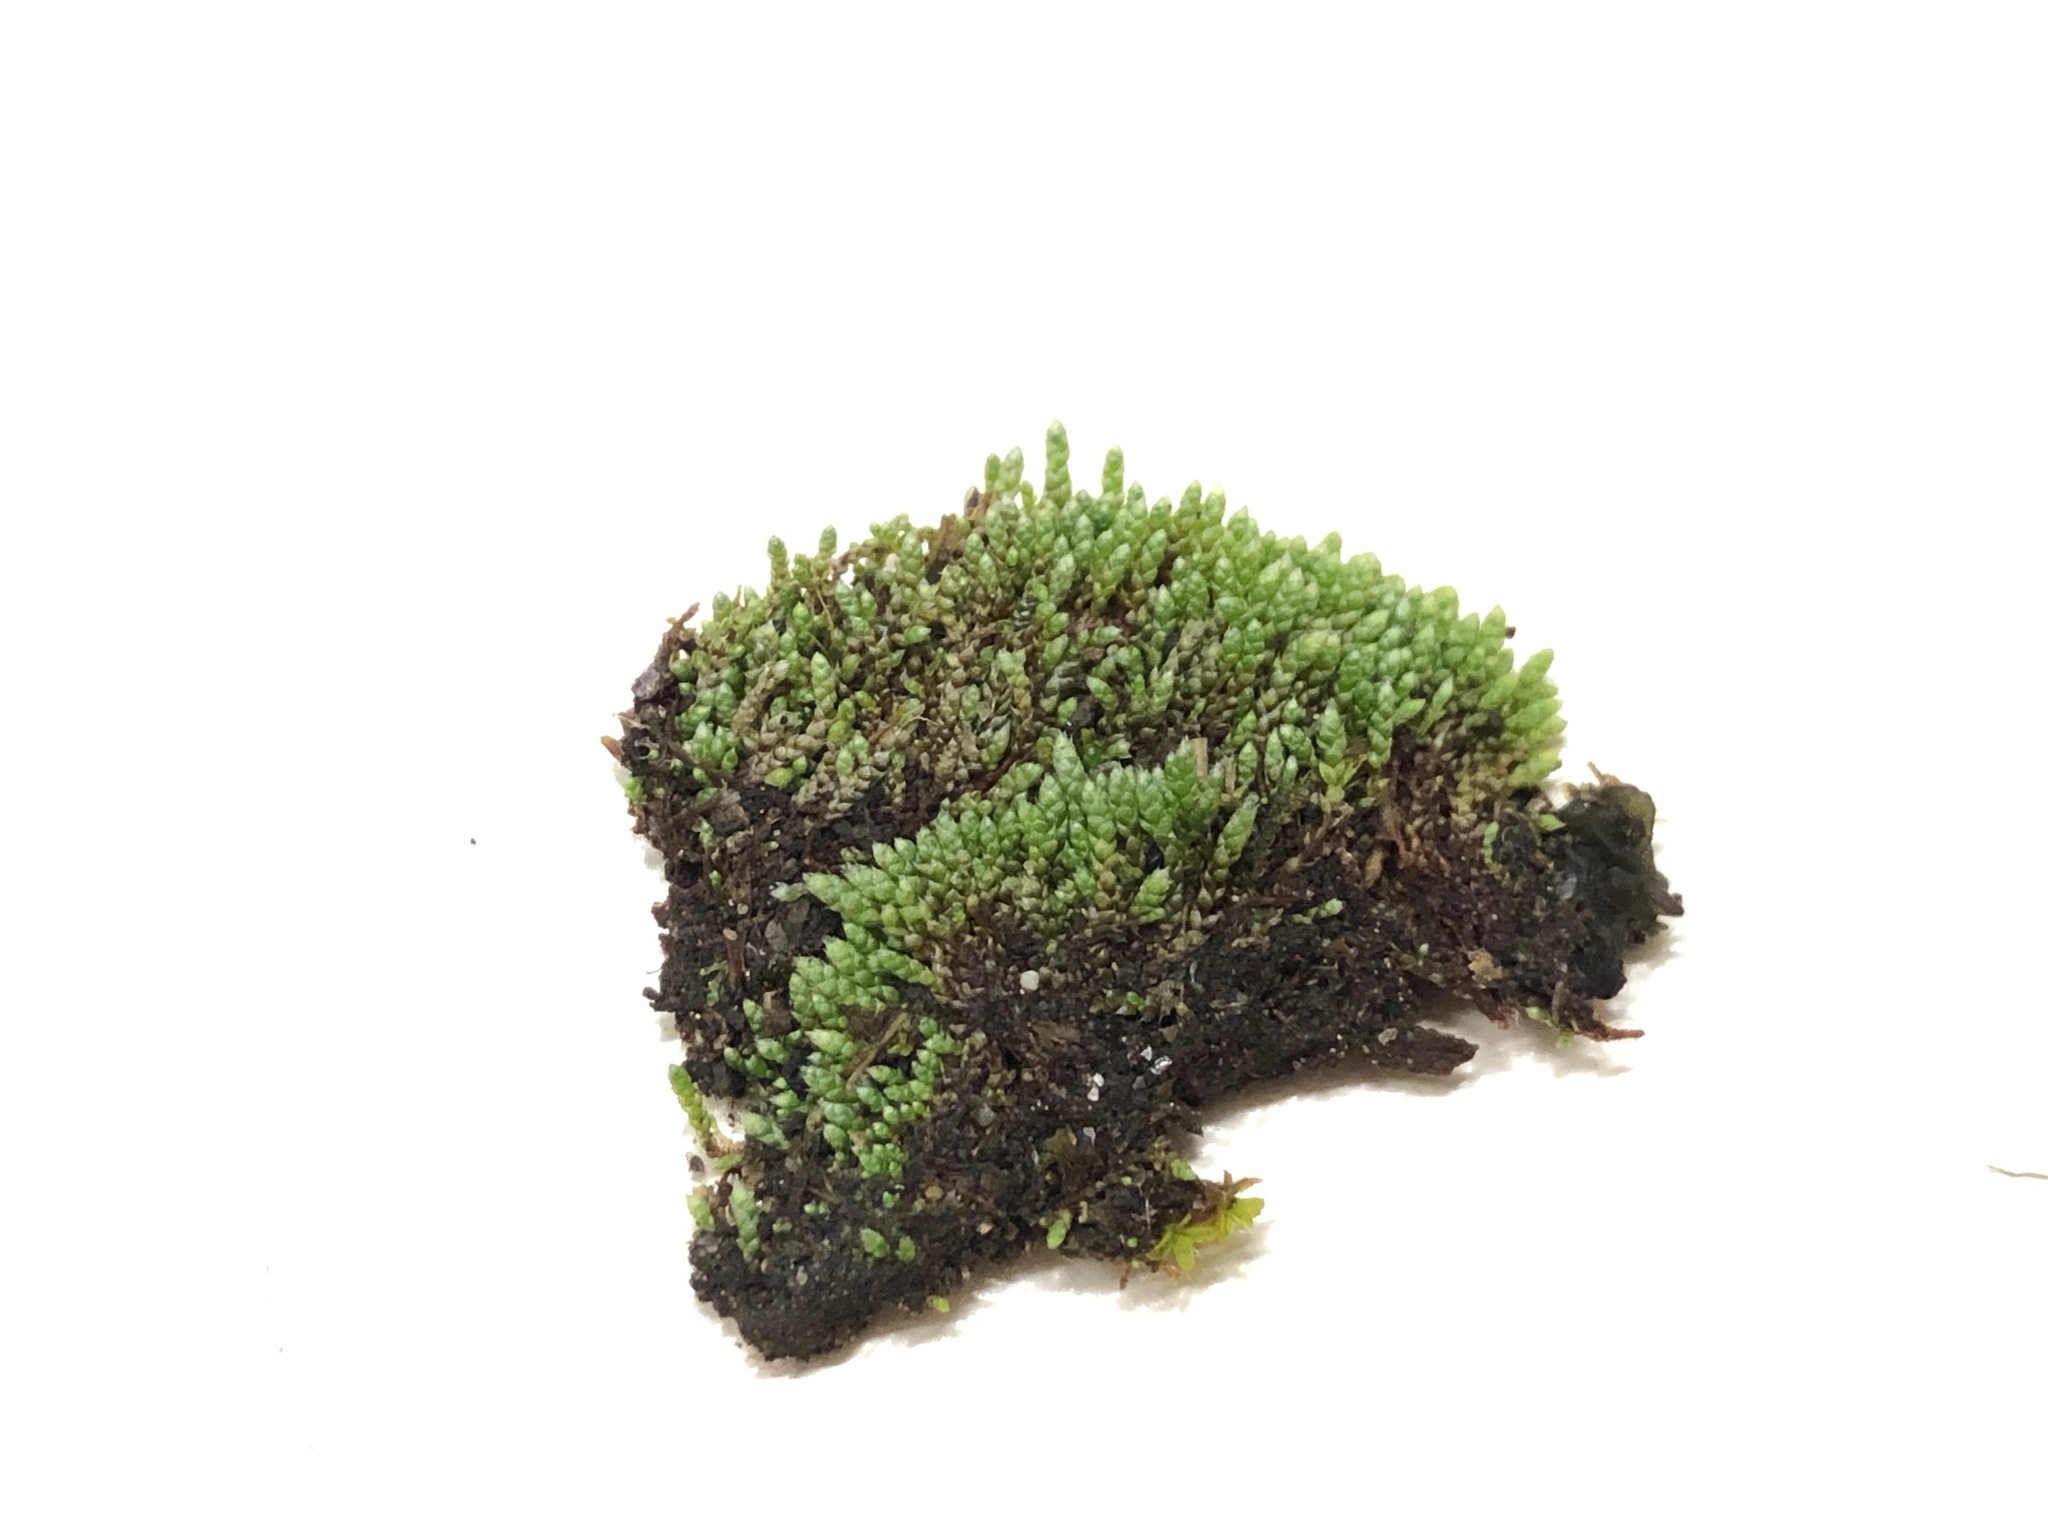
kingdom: Plantae
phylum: Bryophyta
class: Bryopsida
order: Bryales
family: Bryaceae
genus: Bryum
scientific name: Bryum argenteum
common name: Silver-moss
